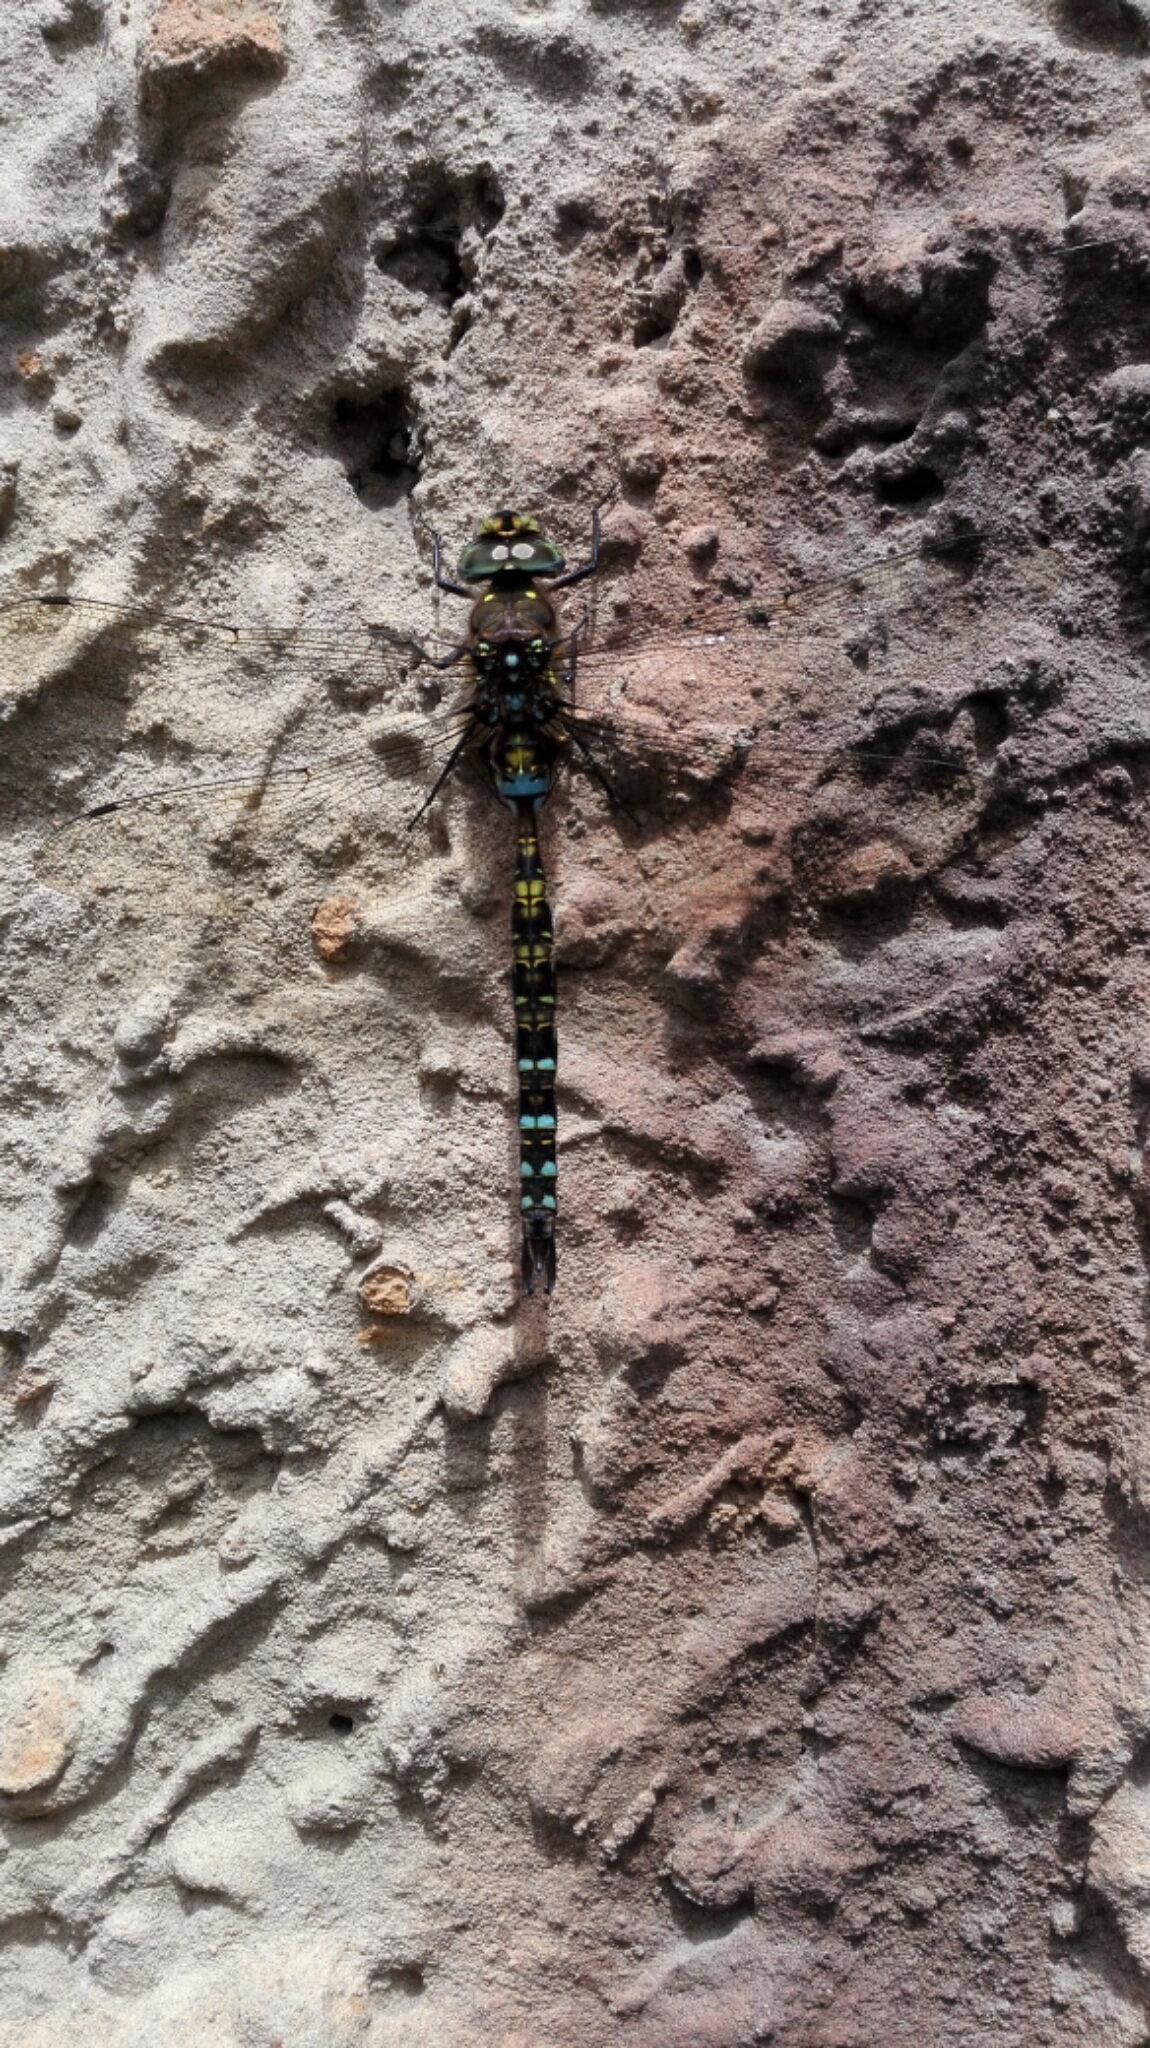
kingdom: Animalia
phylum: Arthropoda
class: Insecta
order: Odonata
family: Aeshnidae
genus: Rhionaeschna
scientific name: Rhionaeschna marchali
